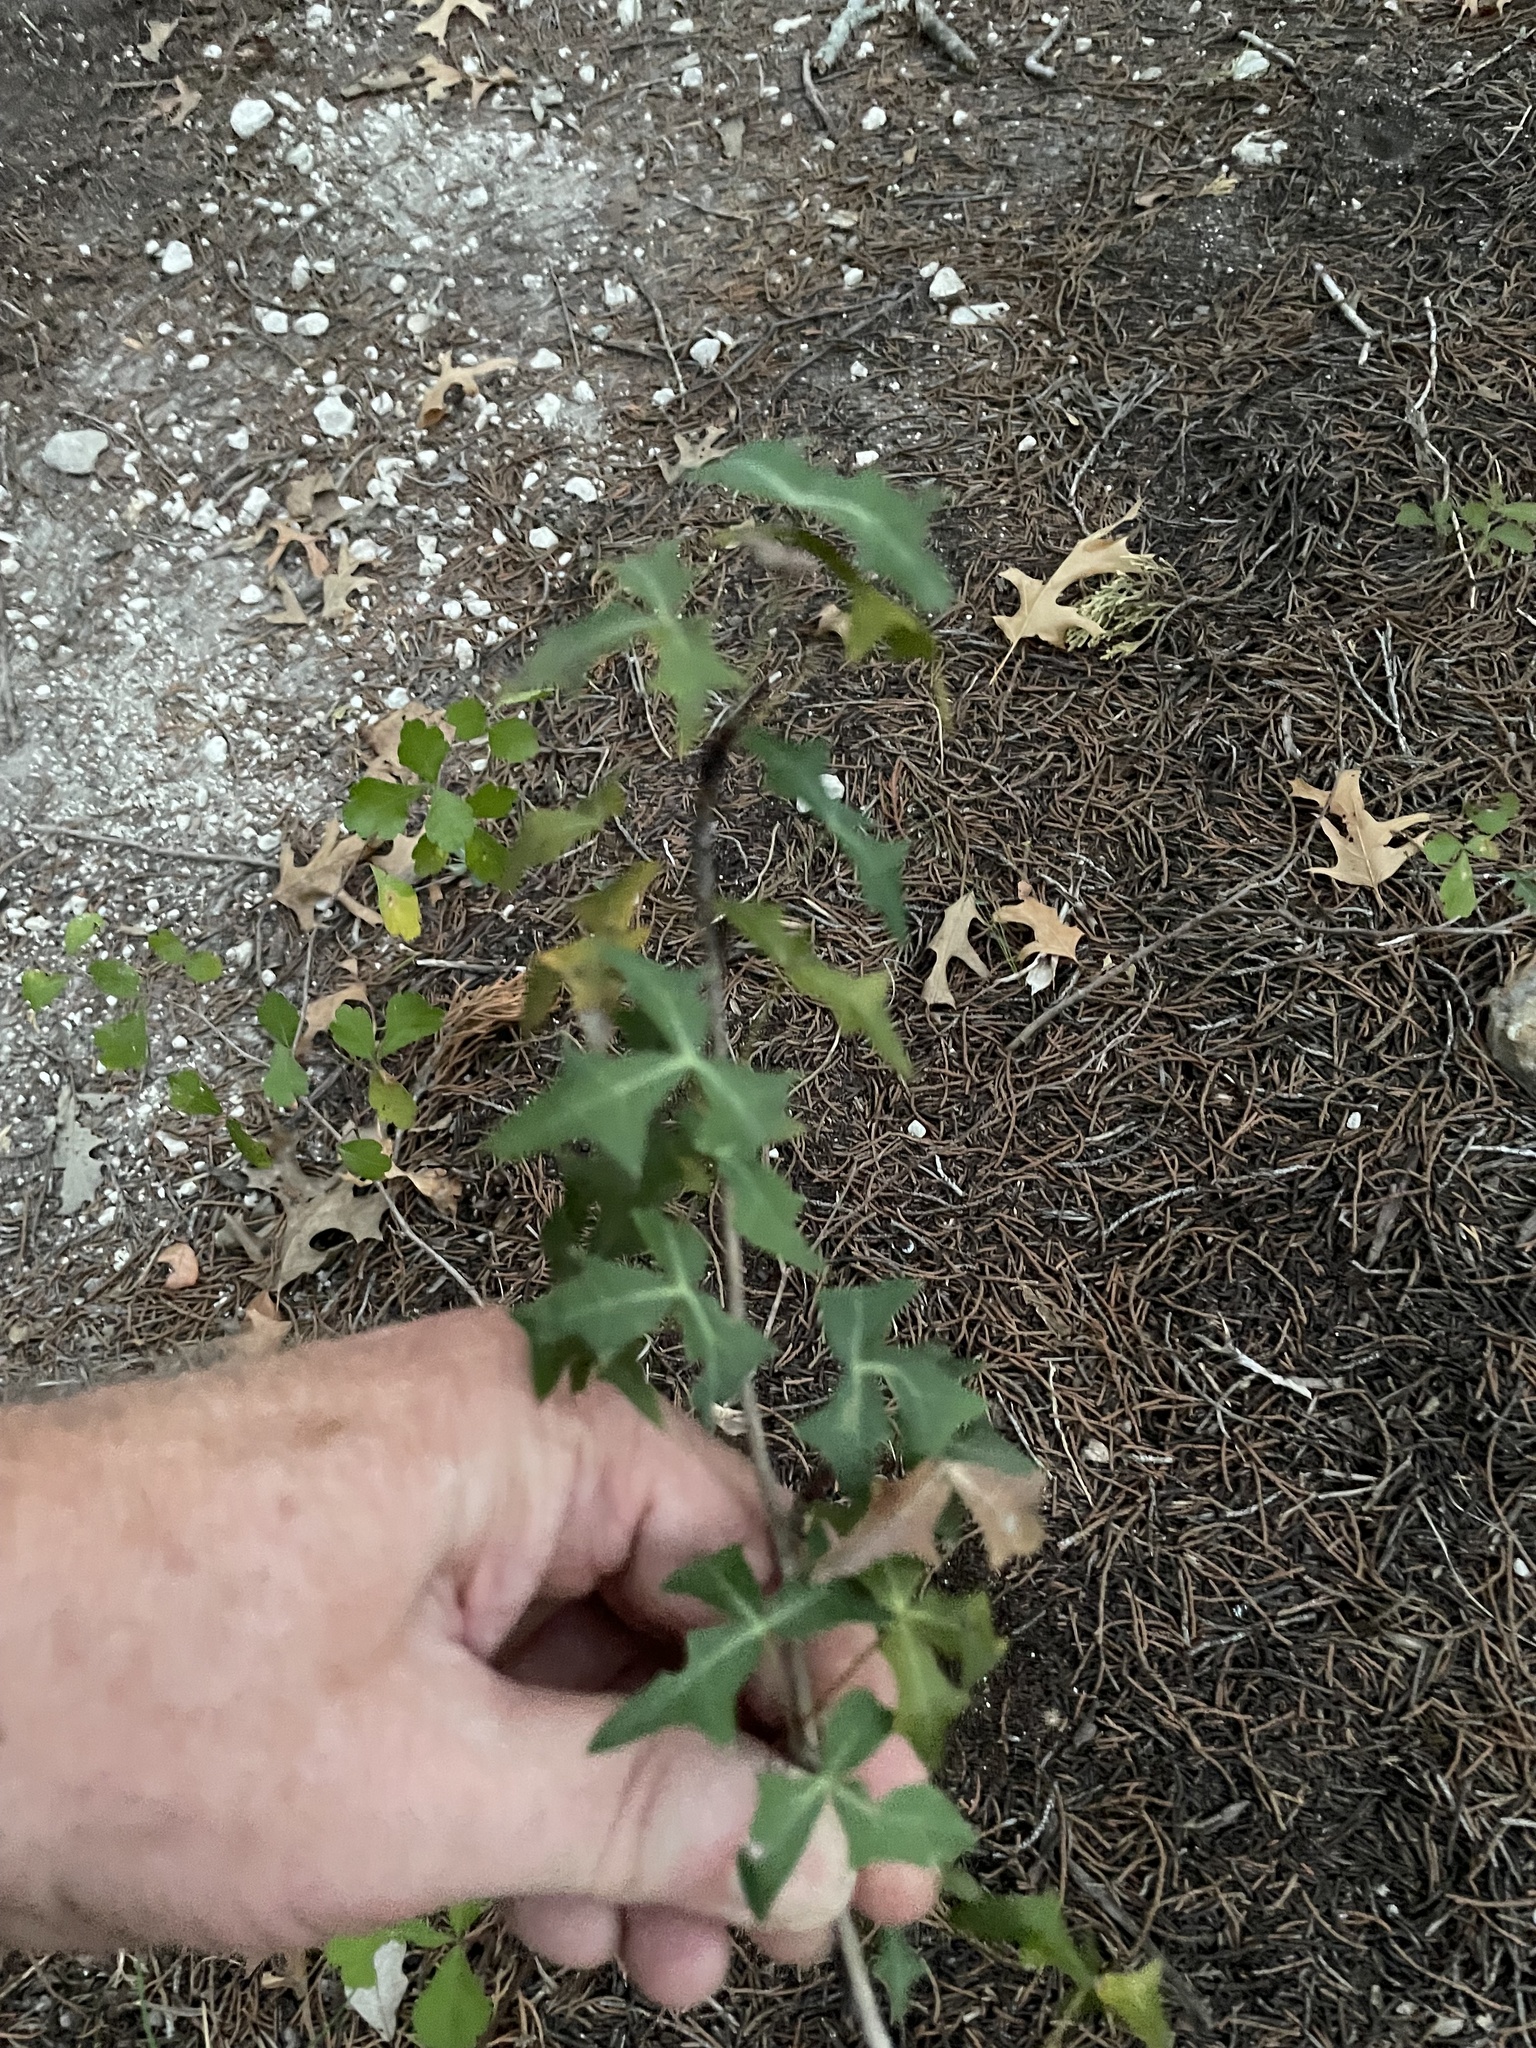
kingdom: Plantae
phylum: Tracheophyta
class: Magnoliopsida
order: Ranunculales
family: Berberidaceae
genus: Alloberberis
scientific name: Alloberberis trifoliolata
